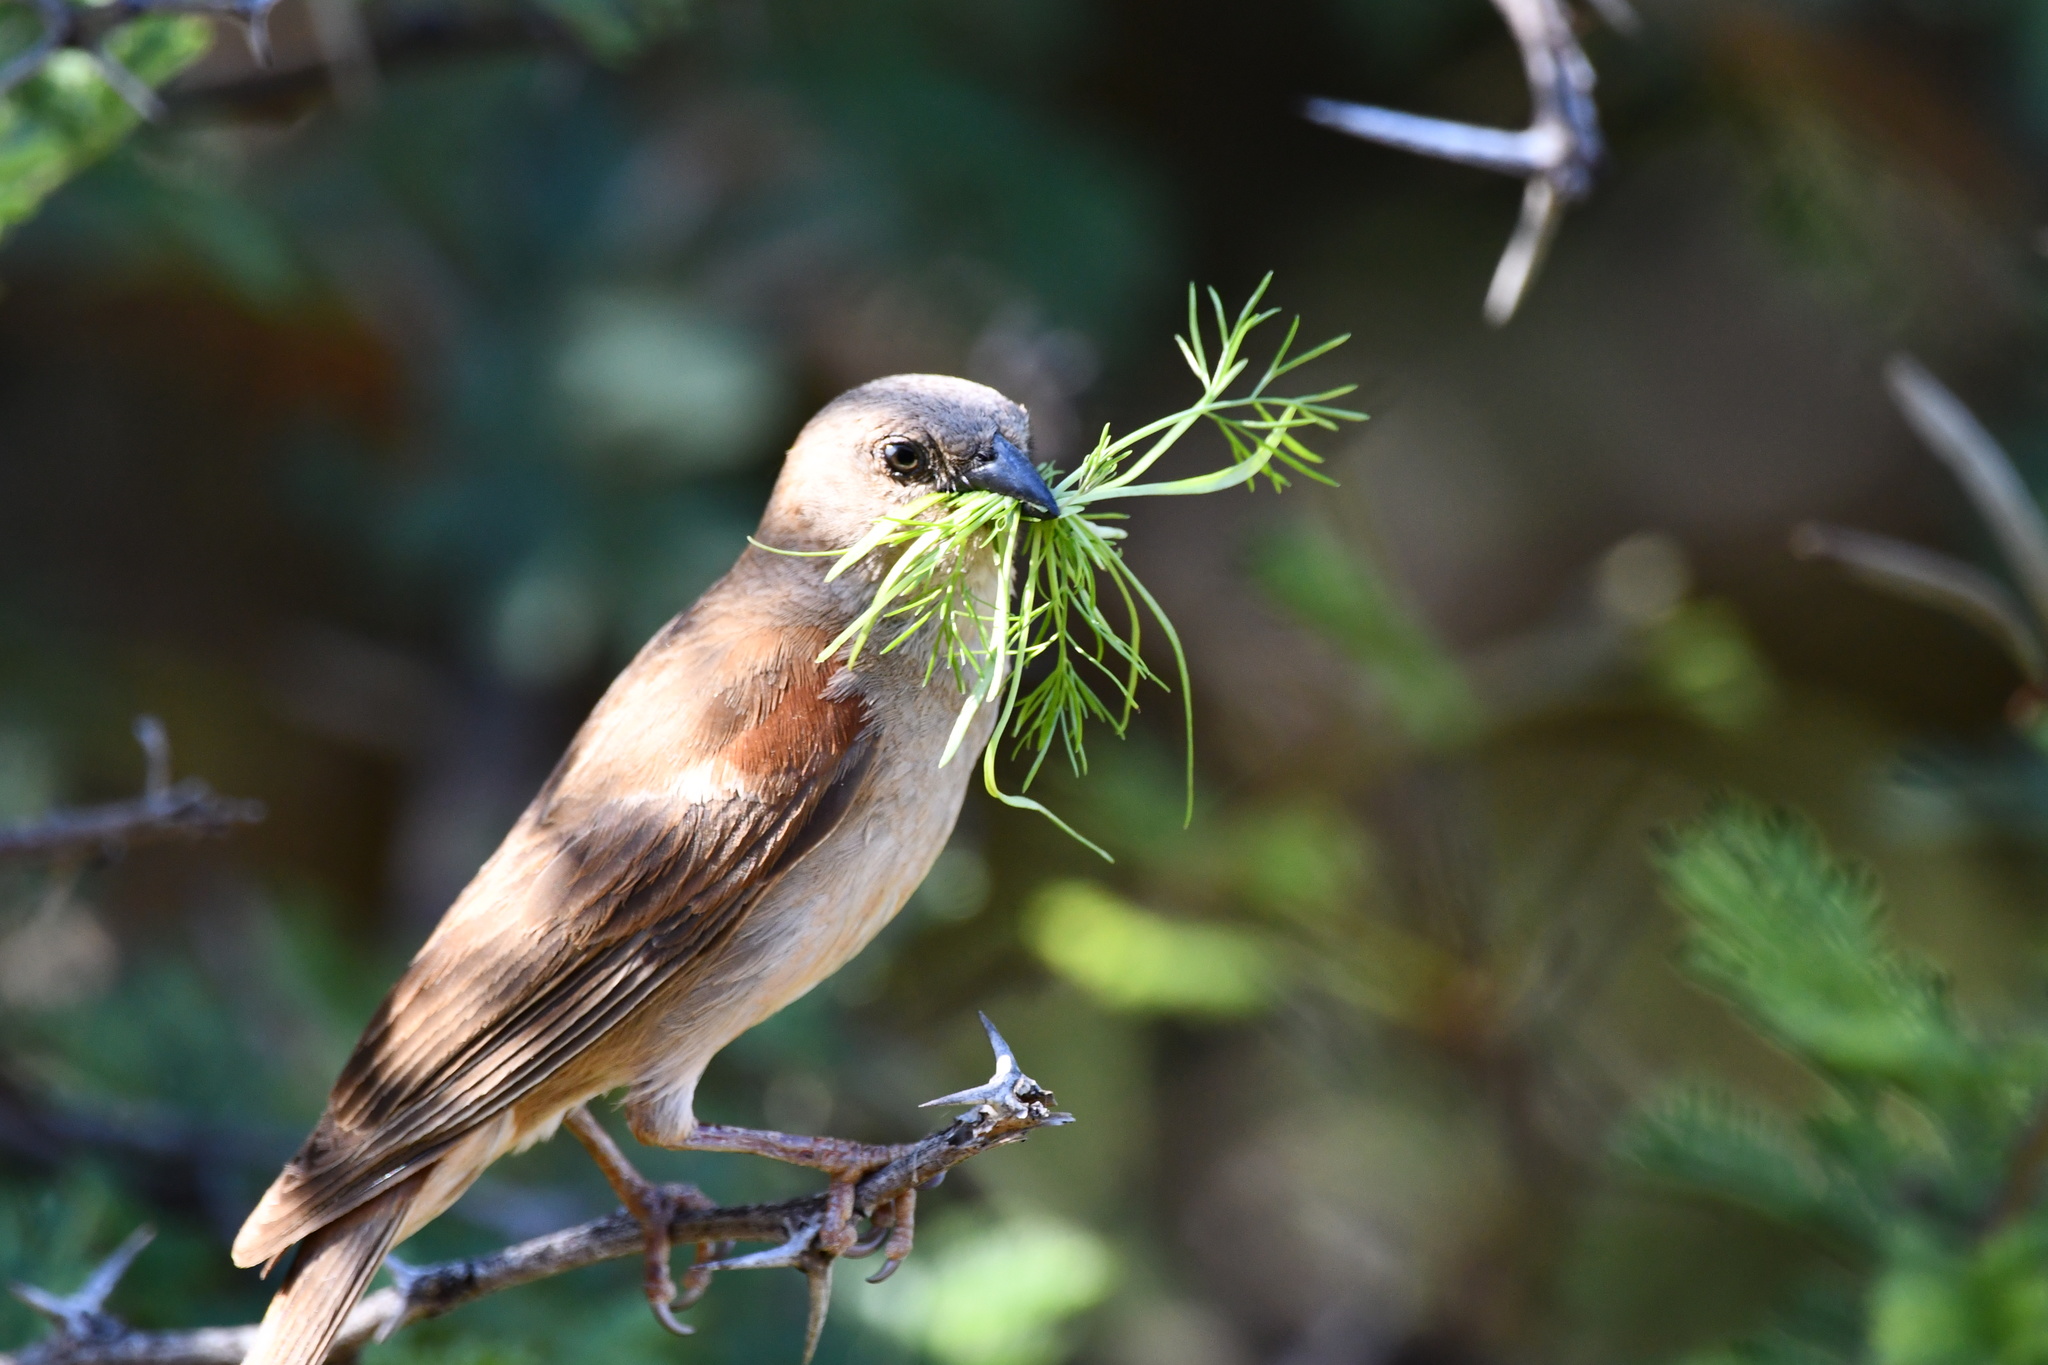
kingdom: Animalia
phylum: Chordata
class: Aves
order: Passeriformes
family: Passeridae
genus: Passer
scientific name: Passer diffusus
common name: Southern grey-headed sparrow
